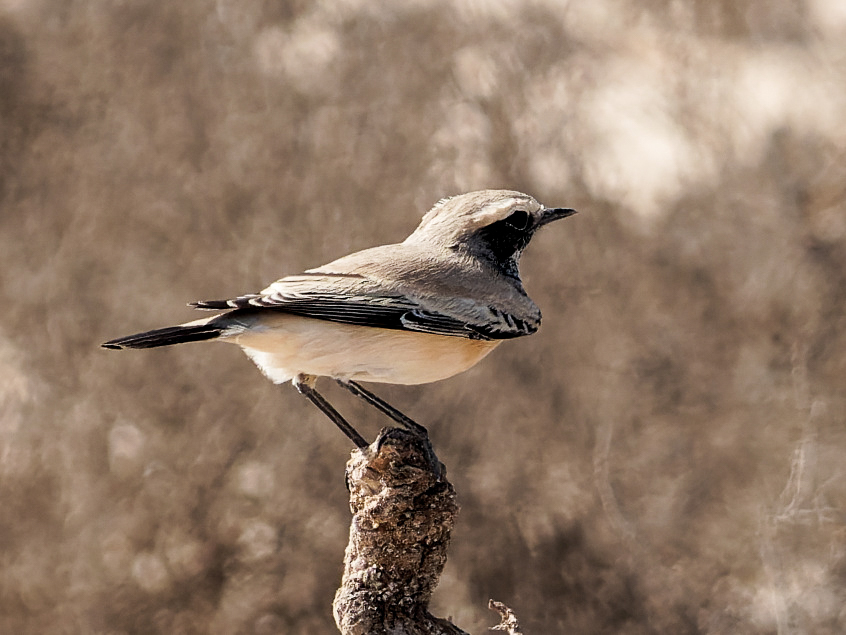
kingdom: Animalia
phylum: Chordata
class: Aves
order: Passeriformes
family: Muscicapidae
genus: Oenanthe
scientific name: Oenanthe deserti
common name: Desert wheatear
